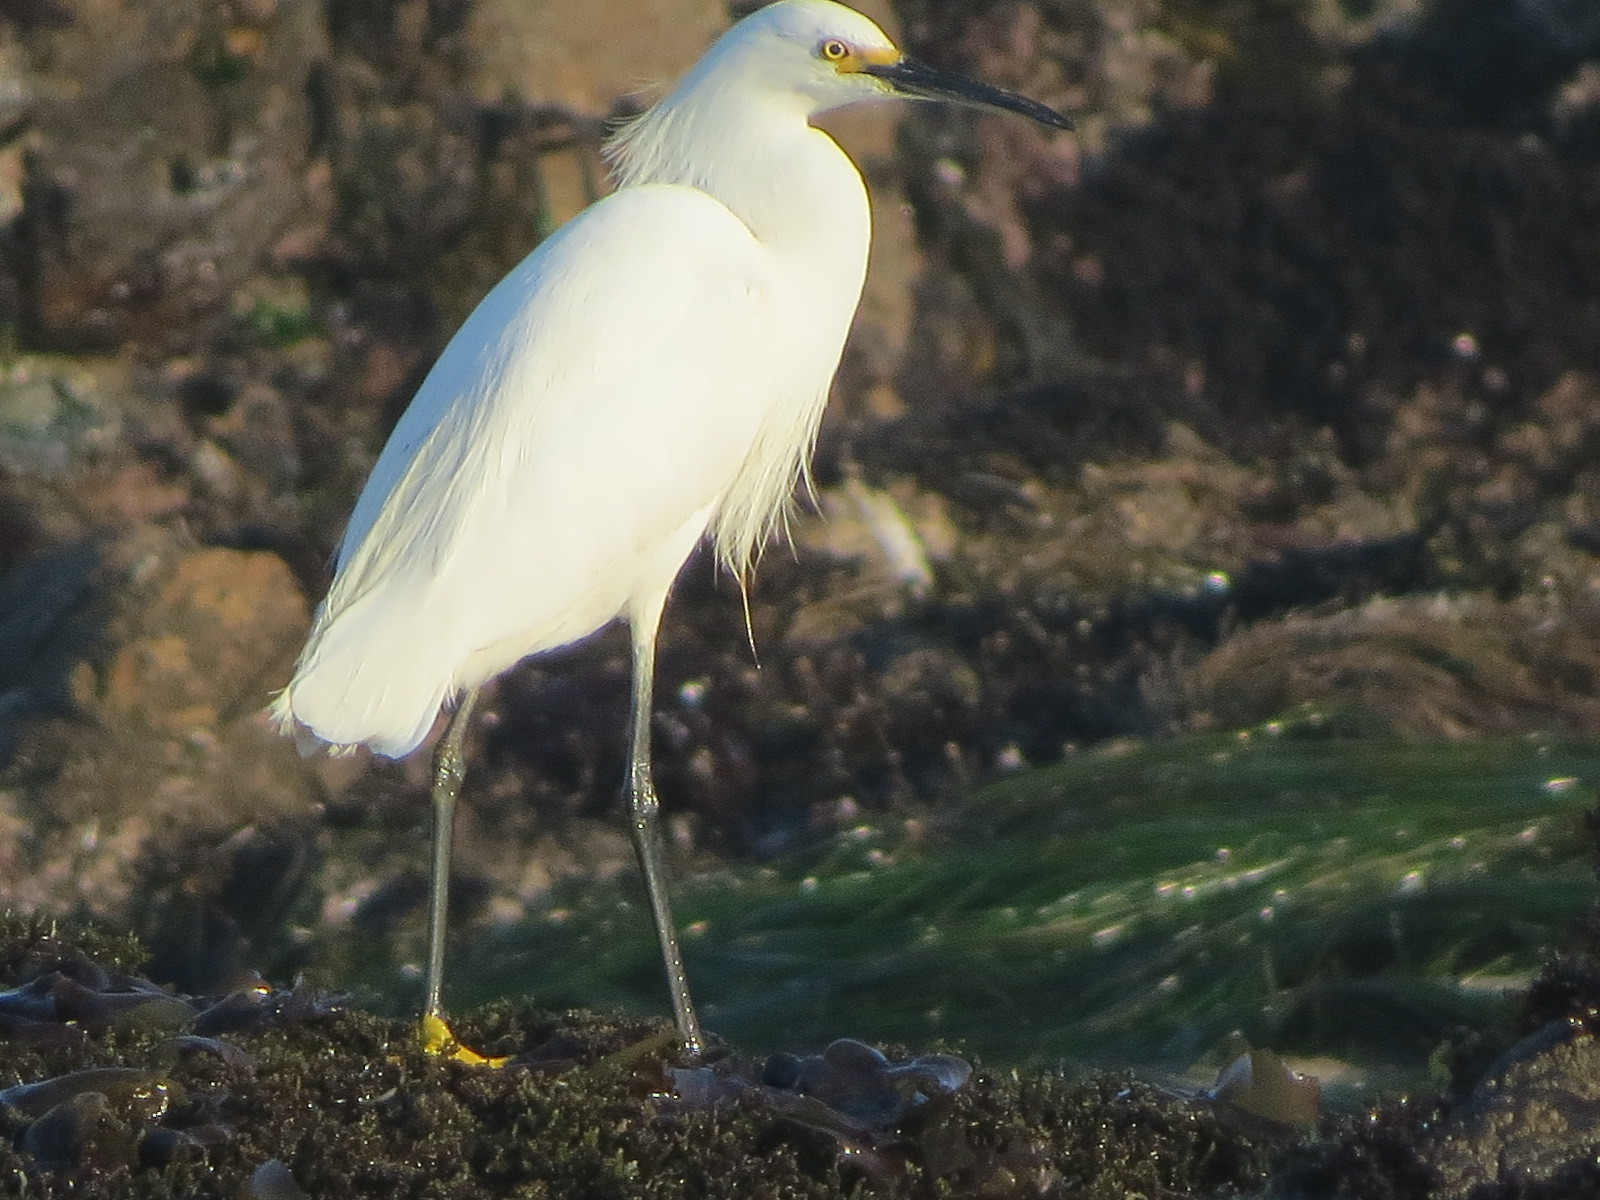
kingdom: Animalia
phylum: Chordata
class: Aves
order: Pelecaniformes
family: Ardeidae
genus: Egretta
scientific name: Egretta thula
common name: Snowy egret
